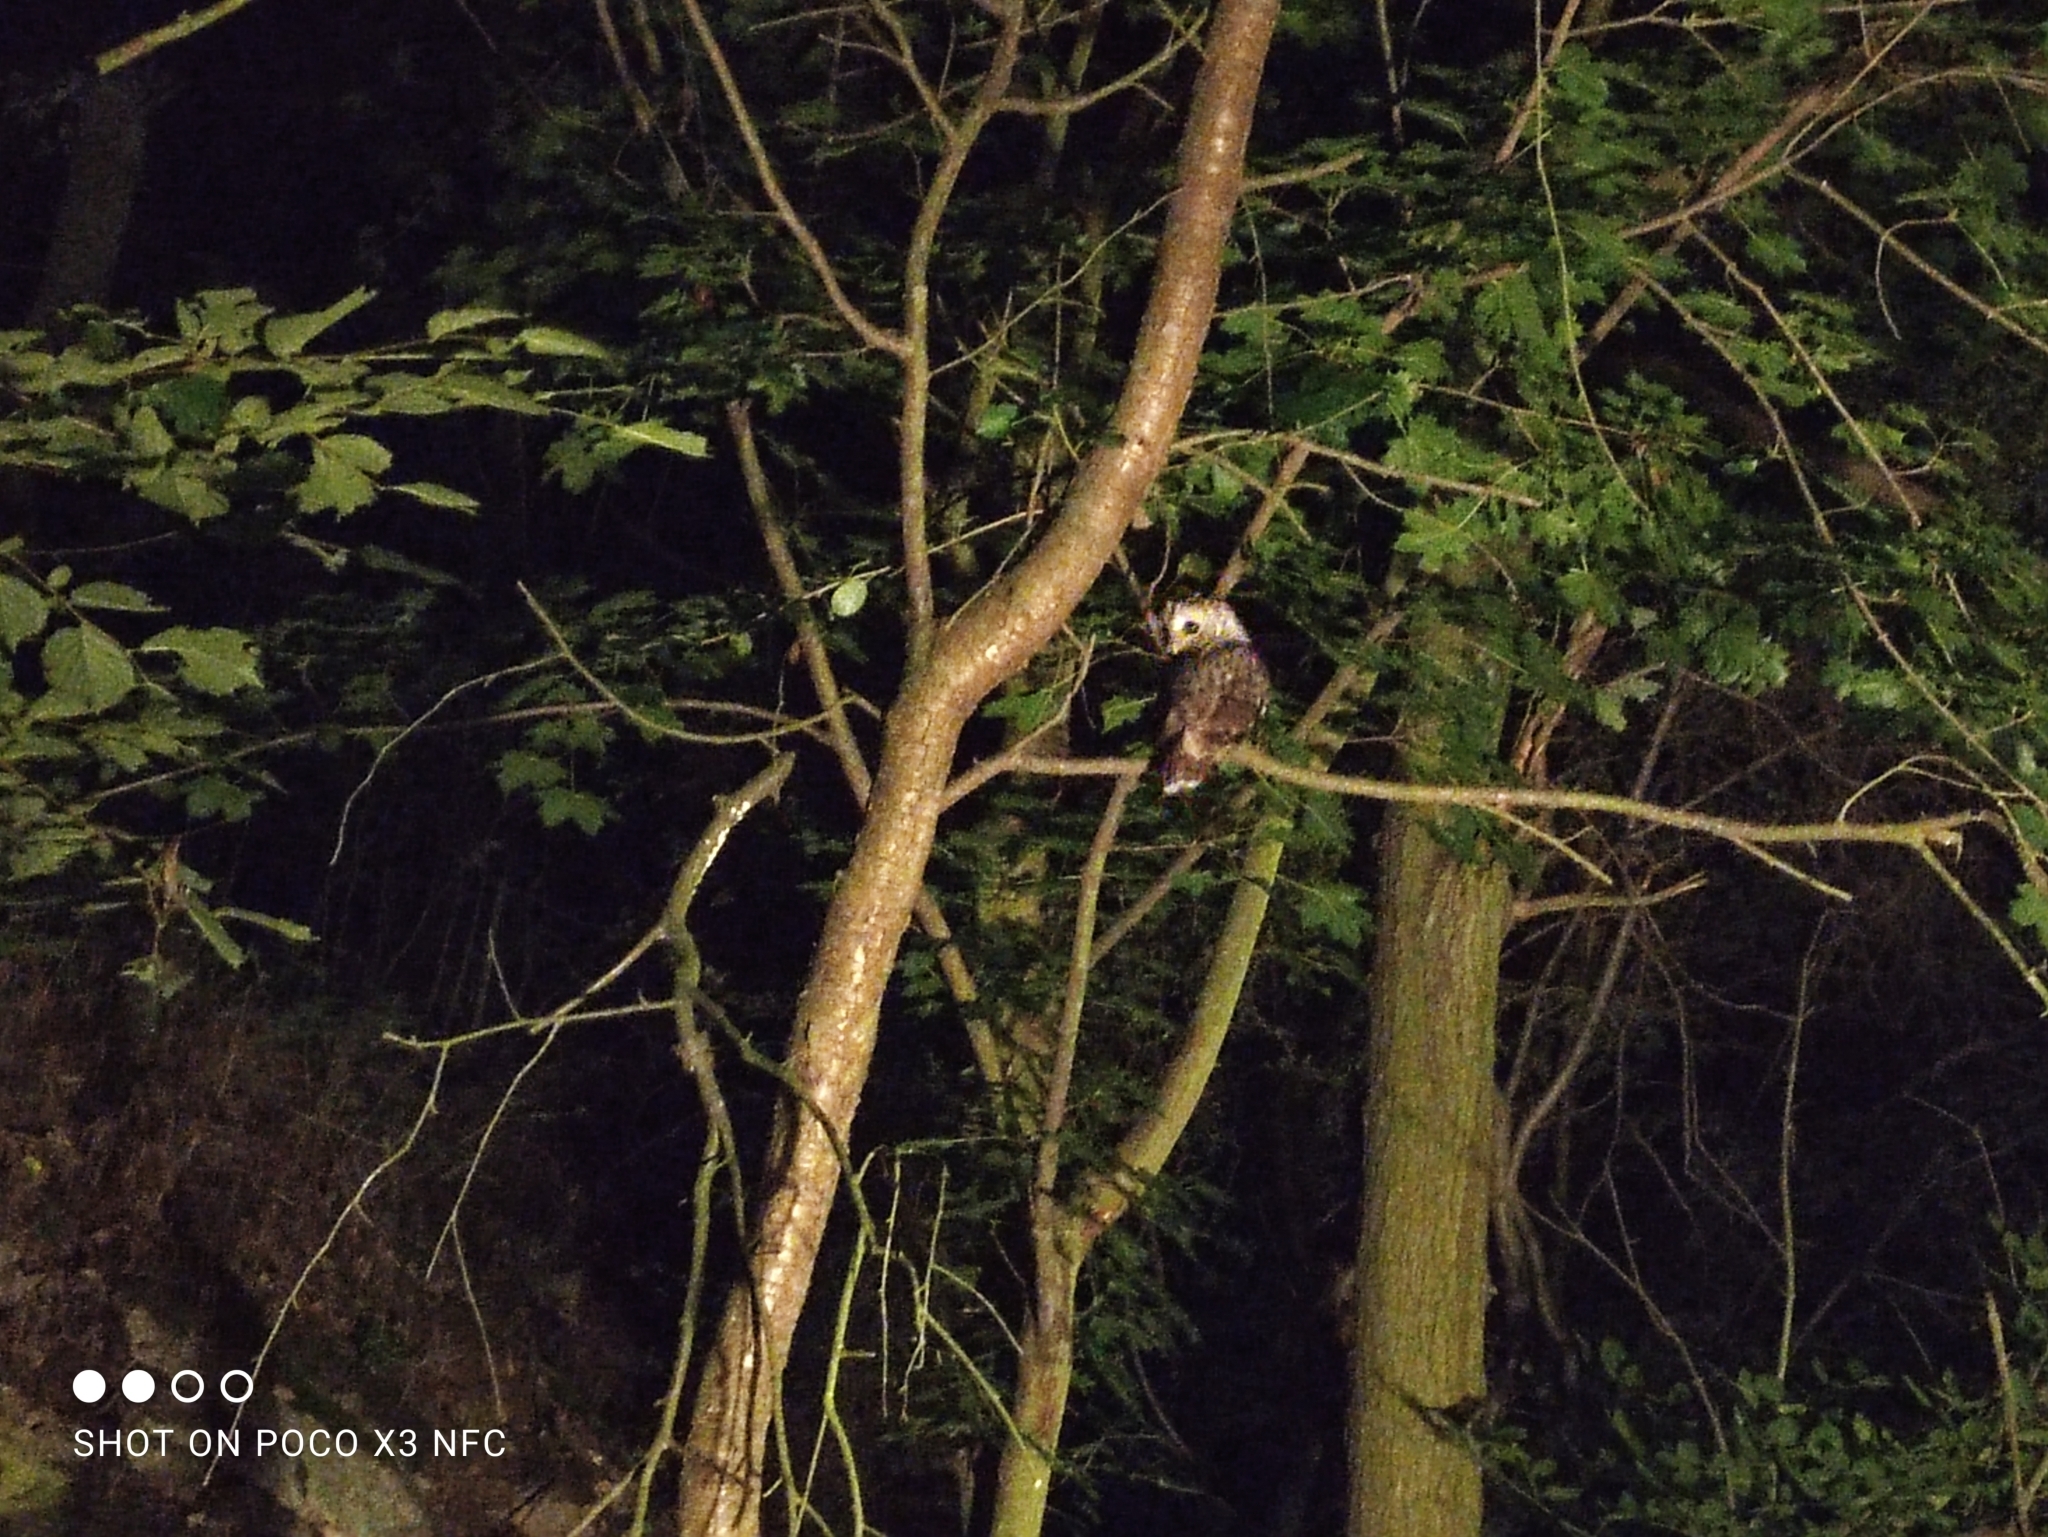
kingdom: Animalia
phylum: Chordata
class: Aves
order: Strigiformes
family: Strigidae
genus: Strix
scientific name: Strix aluco
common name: Tawny owl
